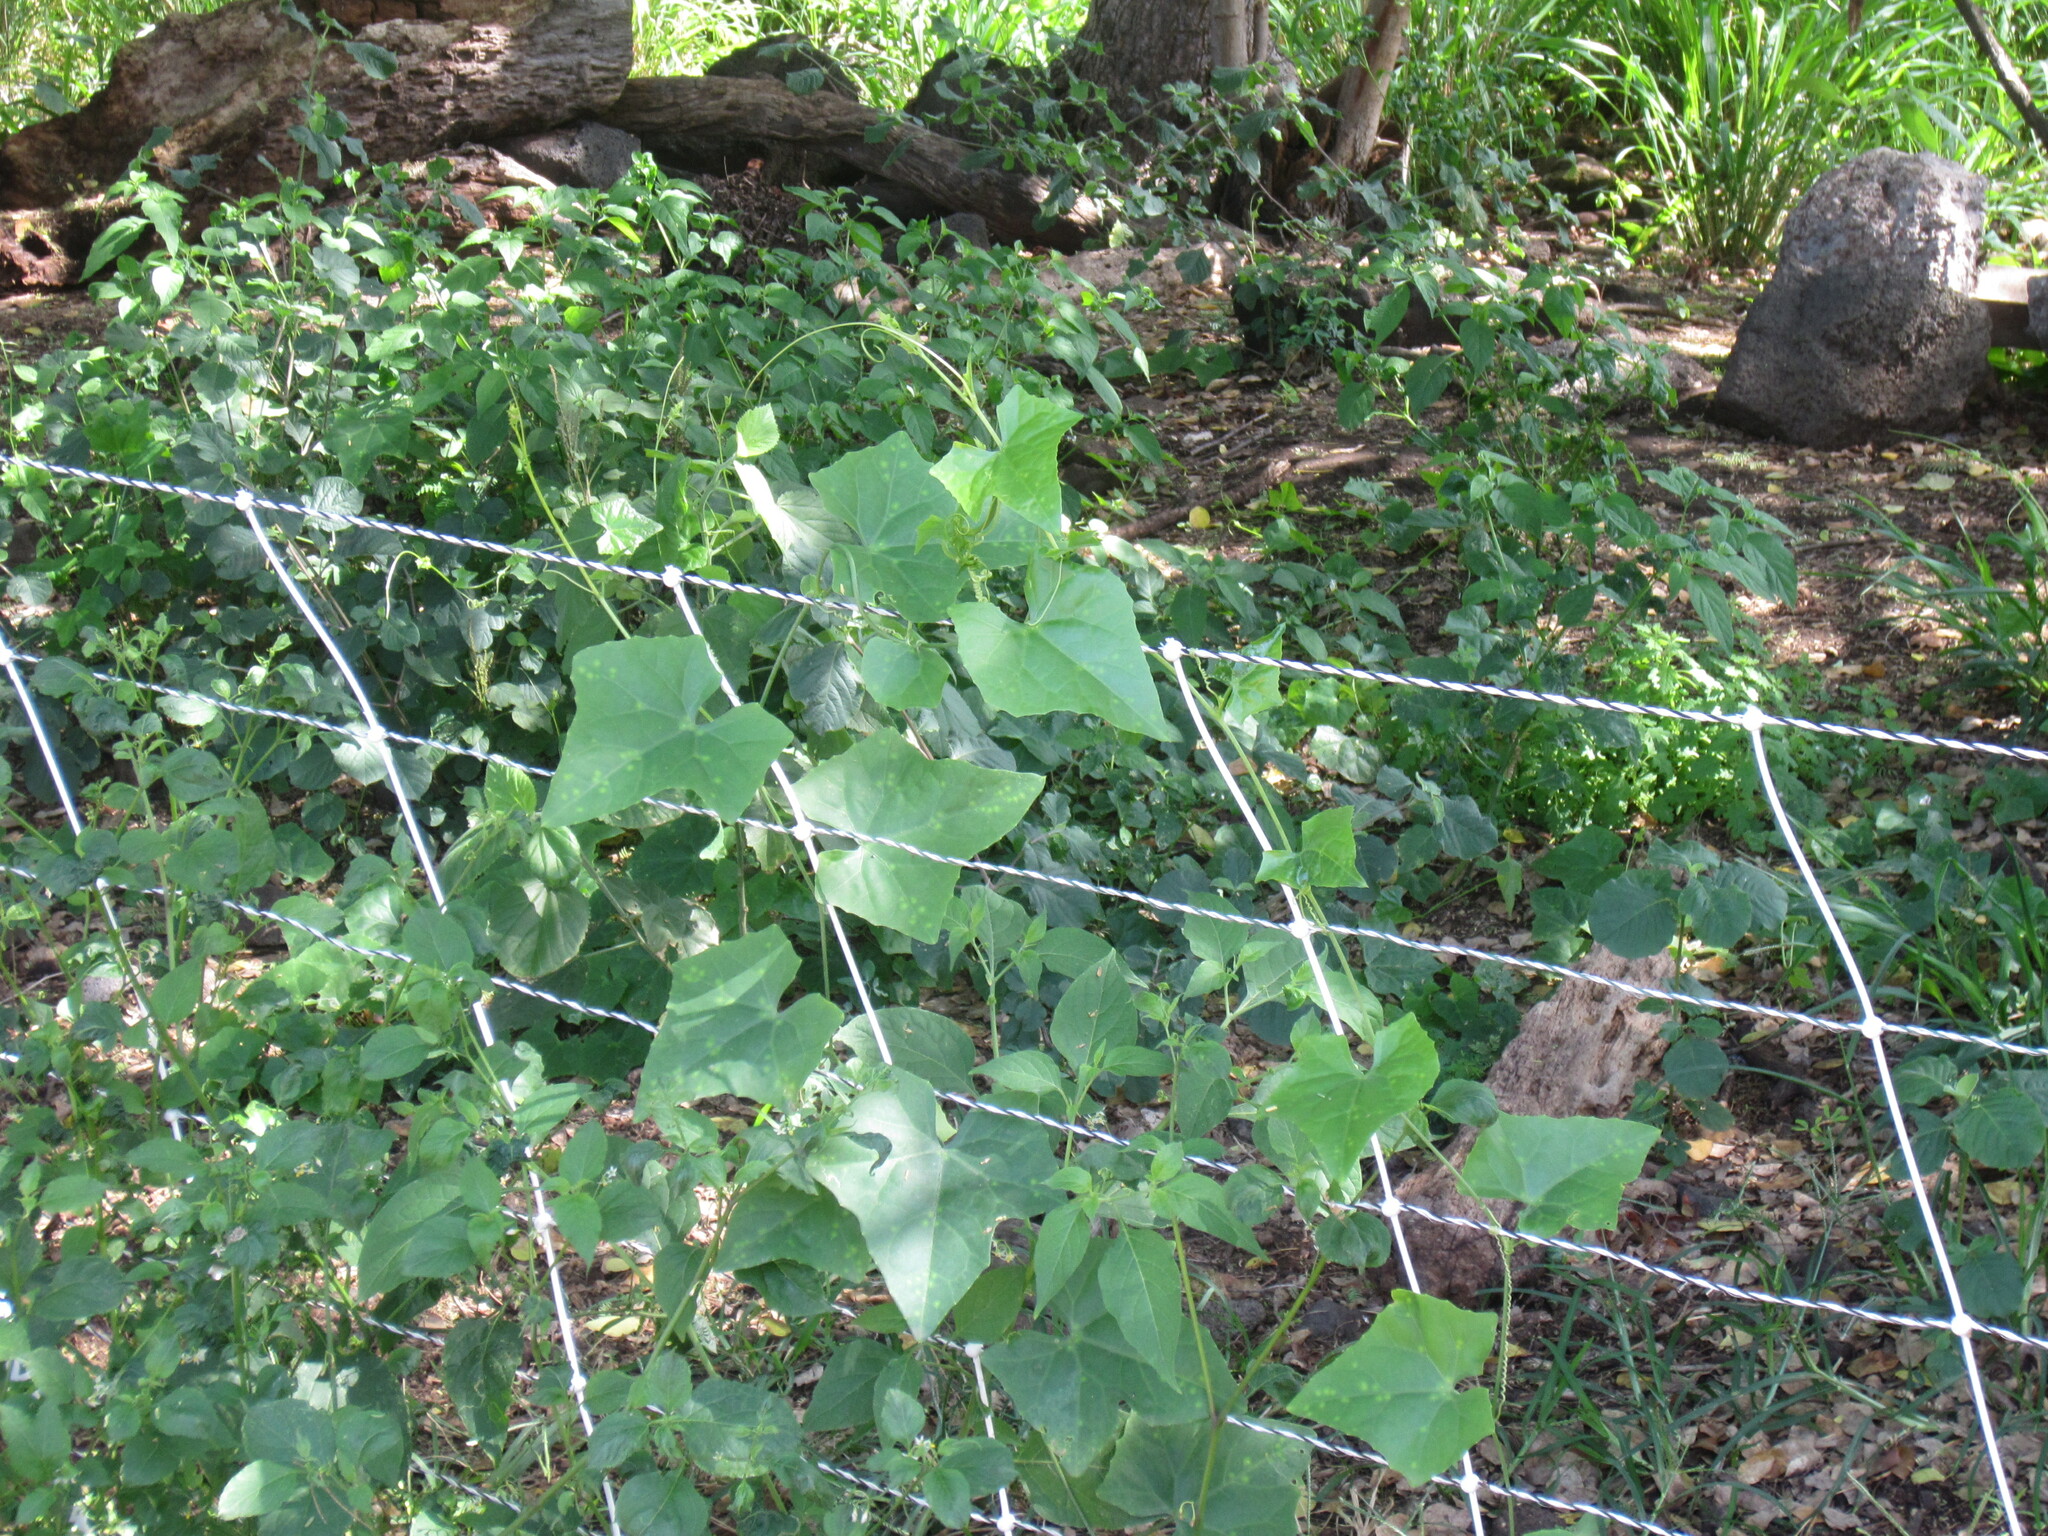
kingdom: Plantae
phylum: Tracheophyta
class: Magnoliopsida
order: Cucurbitales
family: Cucurbitaceae
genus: Coccinia
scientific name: Coccinia grandis
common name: Ivy gourd
